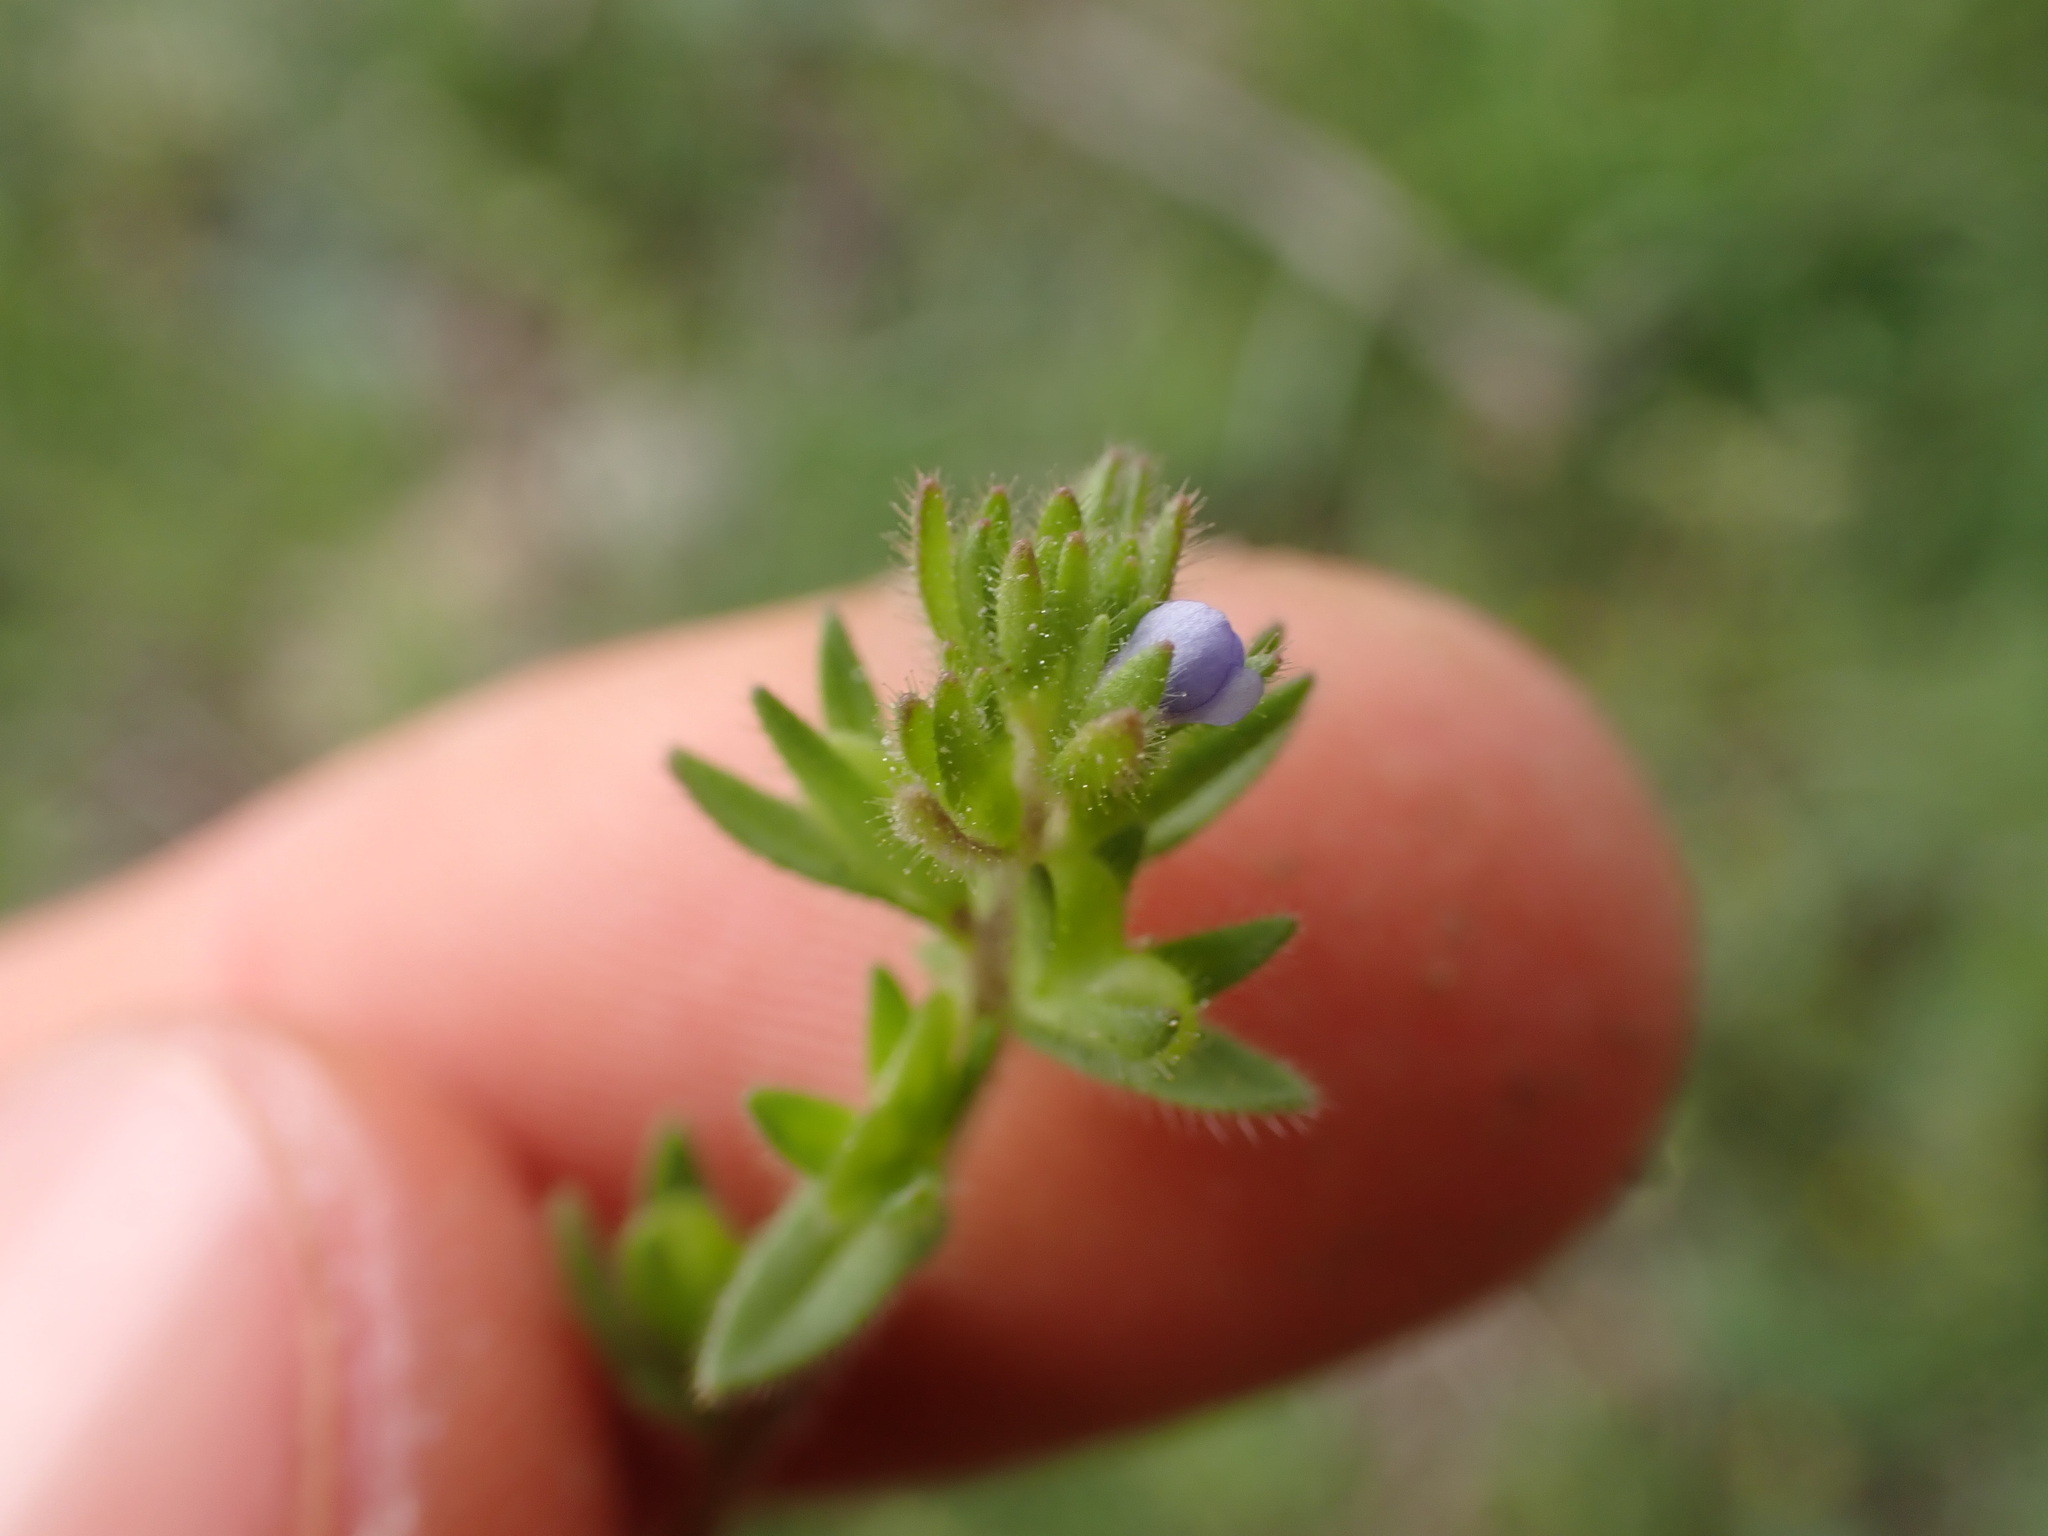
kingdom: Plantae
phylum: Tracheophyta
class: Magnoliopsida
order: Lamiales
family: Plantaginaceae
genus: Veronica
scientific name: Veronica arvensis
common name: Corn speedwell
